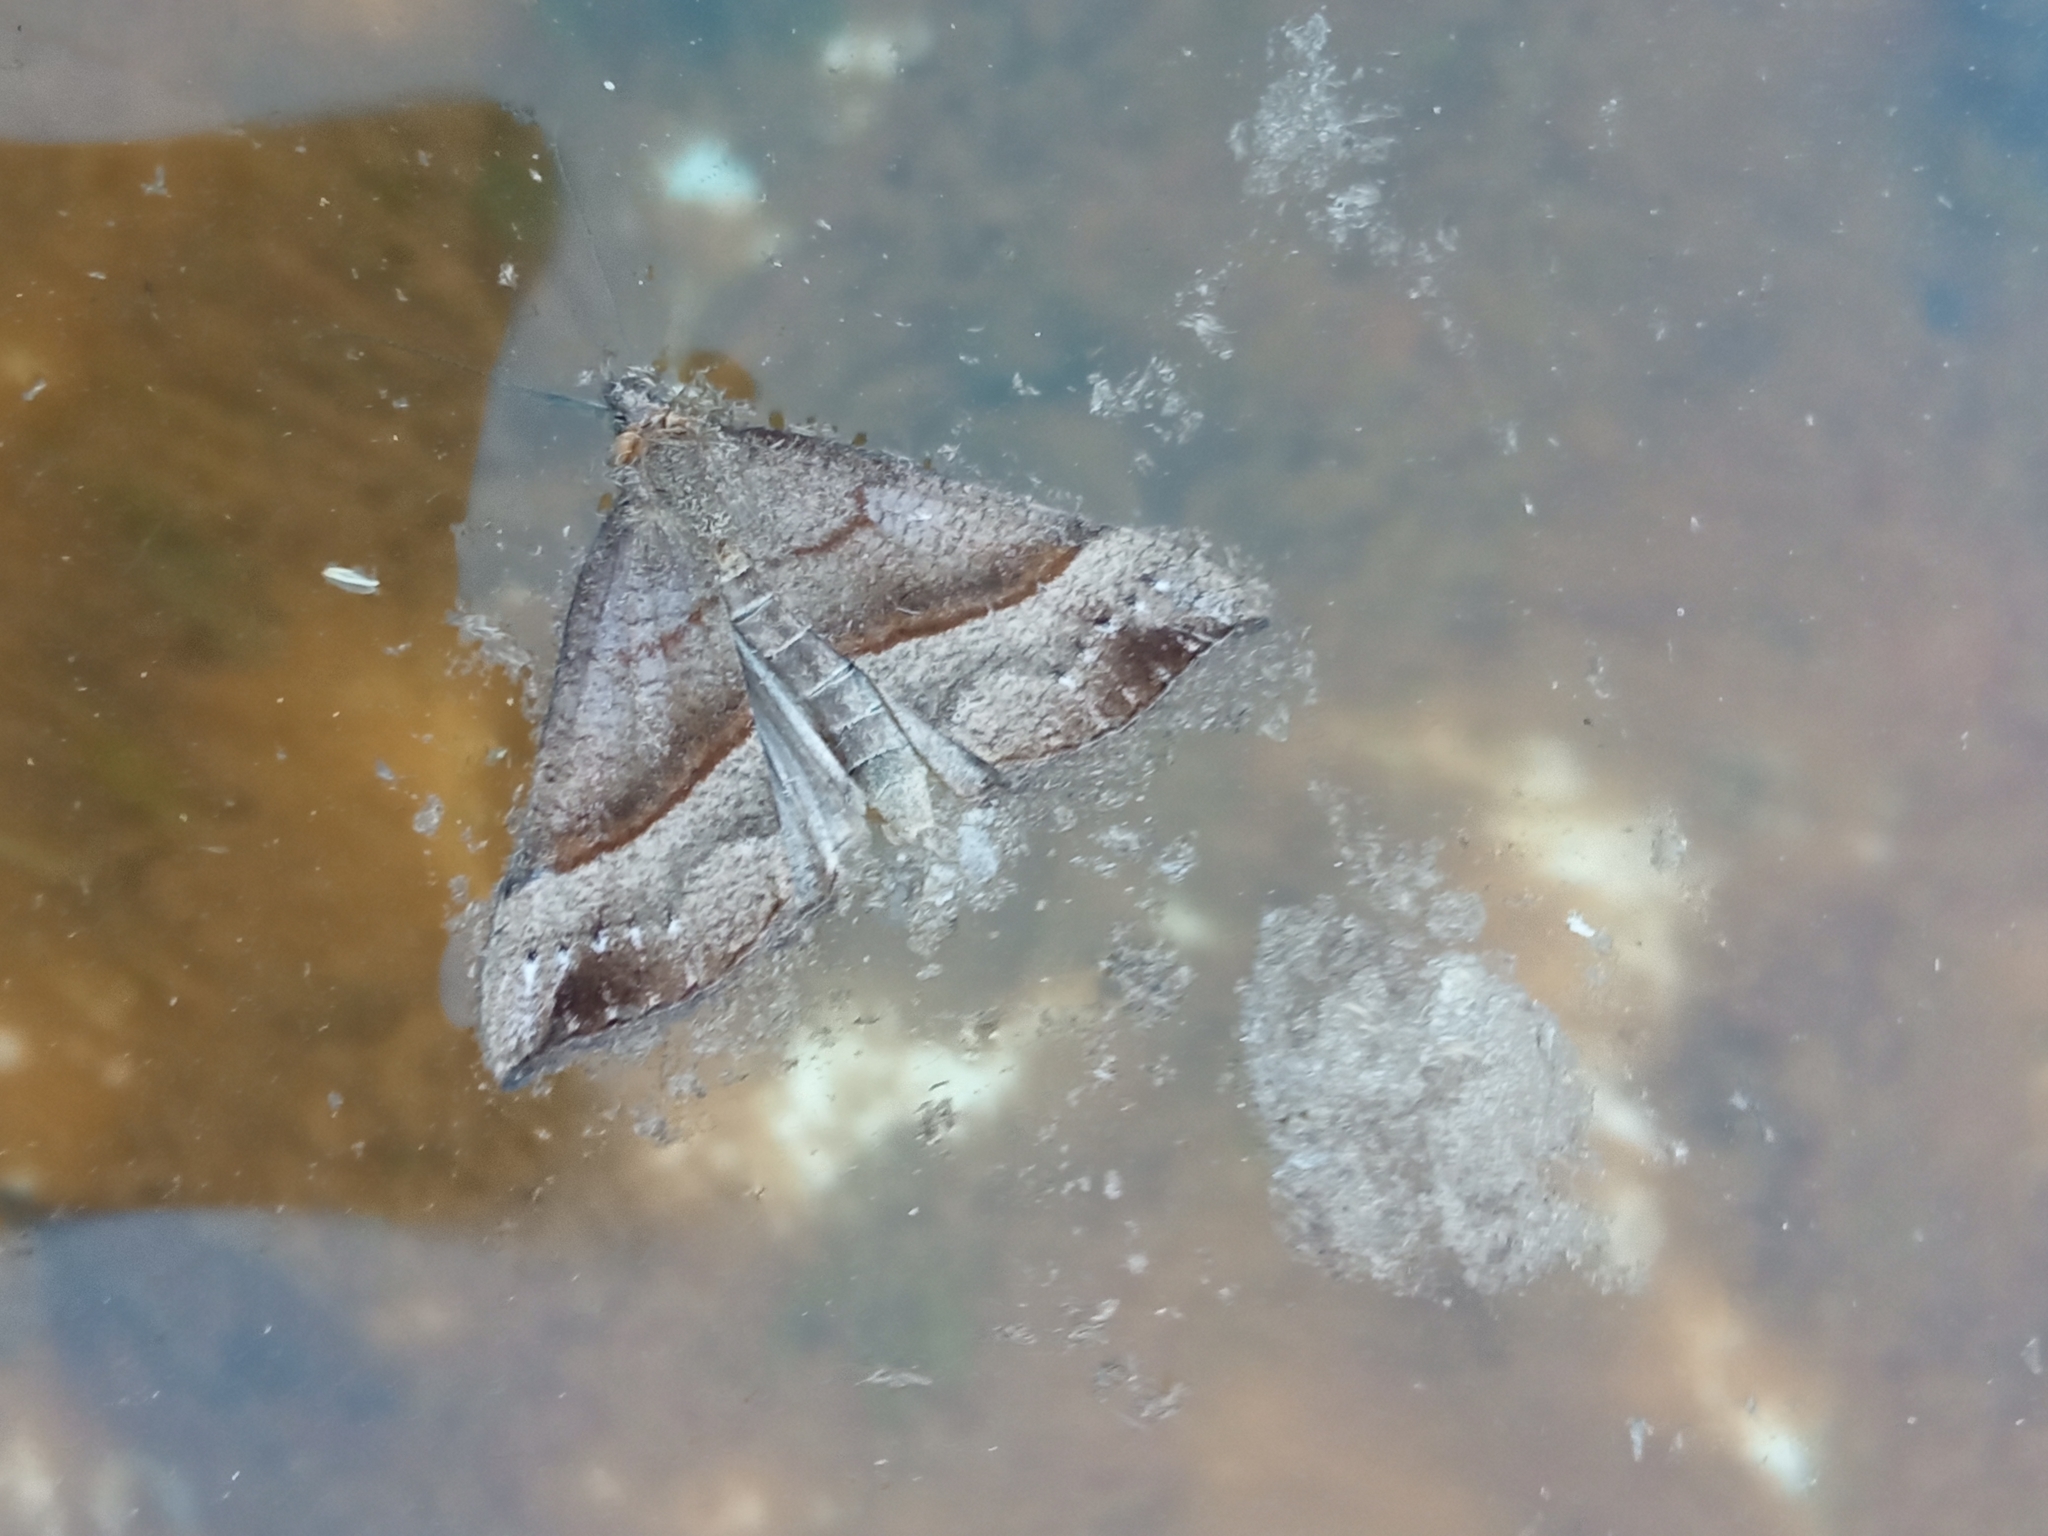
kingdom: Animalia
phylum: Arthropoda
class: Insecta
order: Lepidoptera
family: Erebidae
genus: Hypena
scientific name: Hypena proboscidalis
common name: Snout
